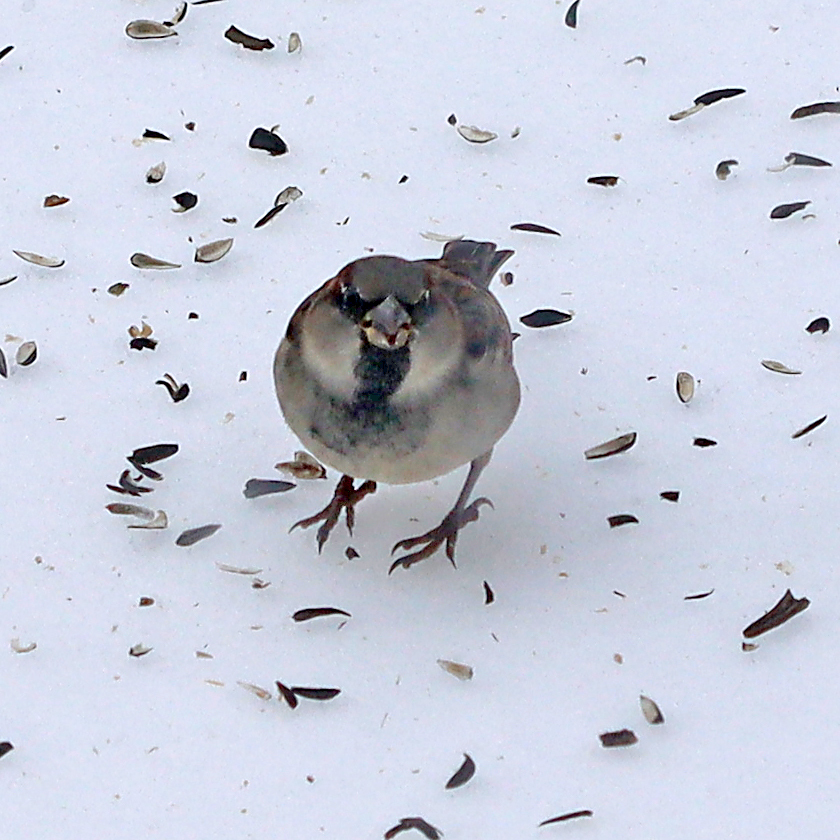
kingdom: Animalia
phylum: Chordata
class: Aves
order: Passeriformes
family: Passeridae
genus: Passer
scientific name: Passer domesticus
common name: House sparrow
